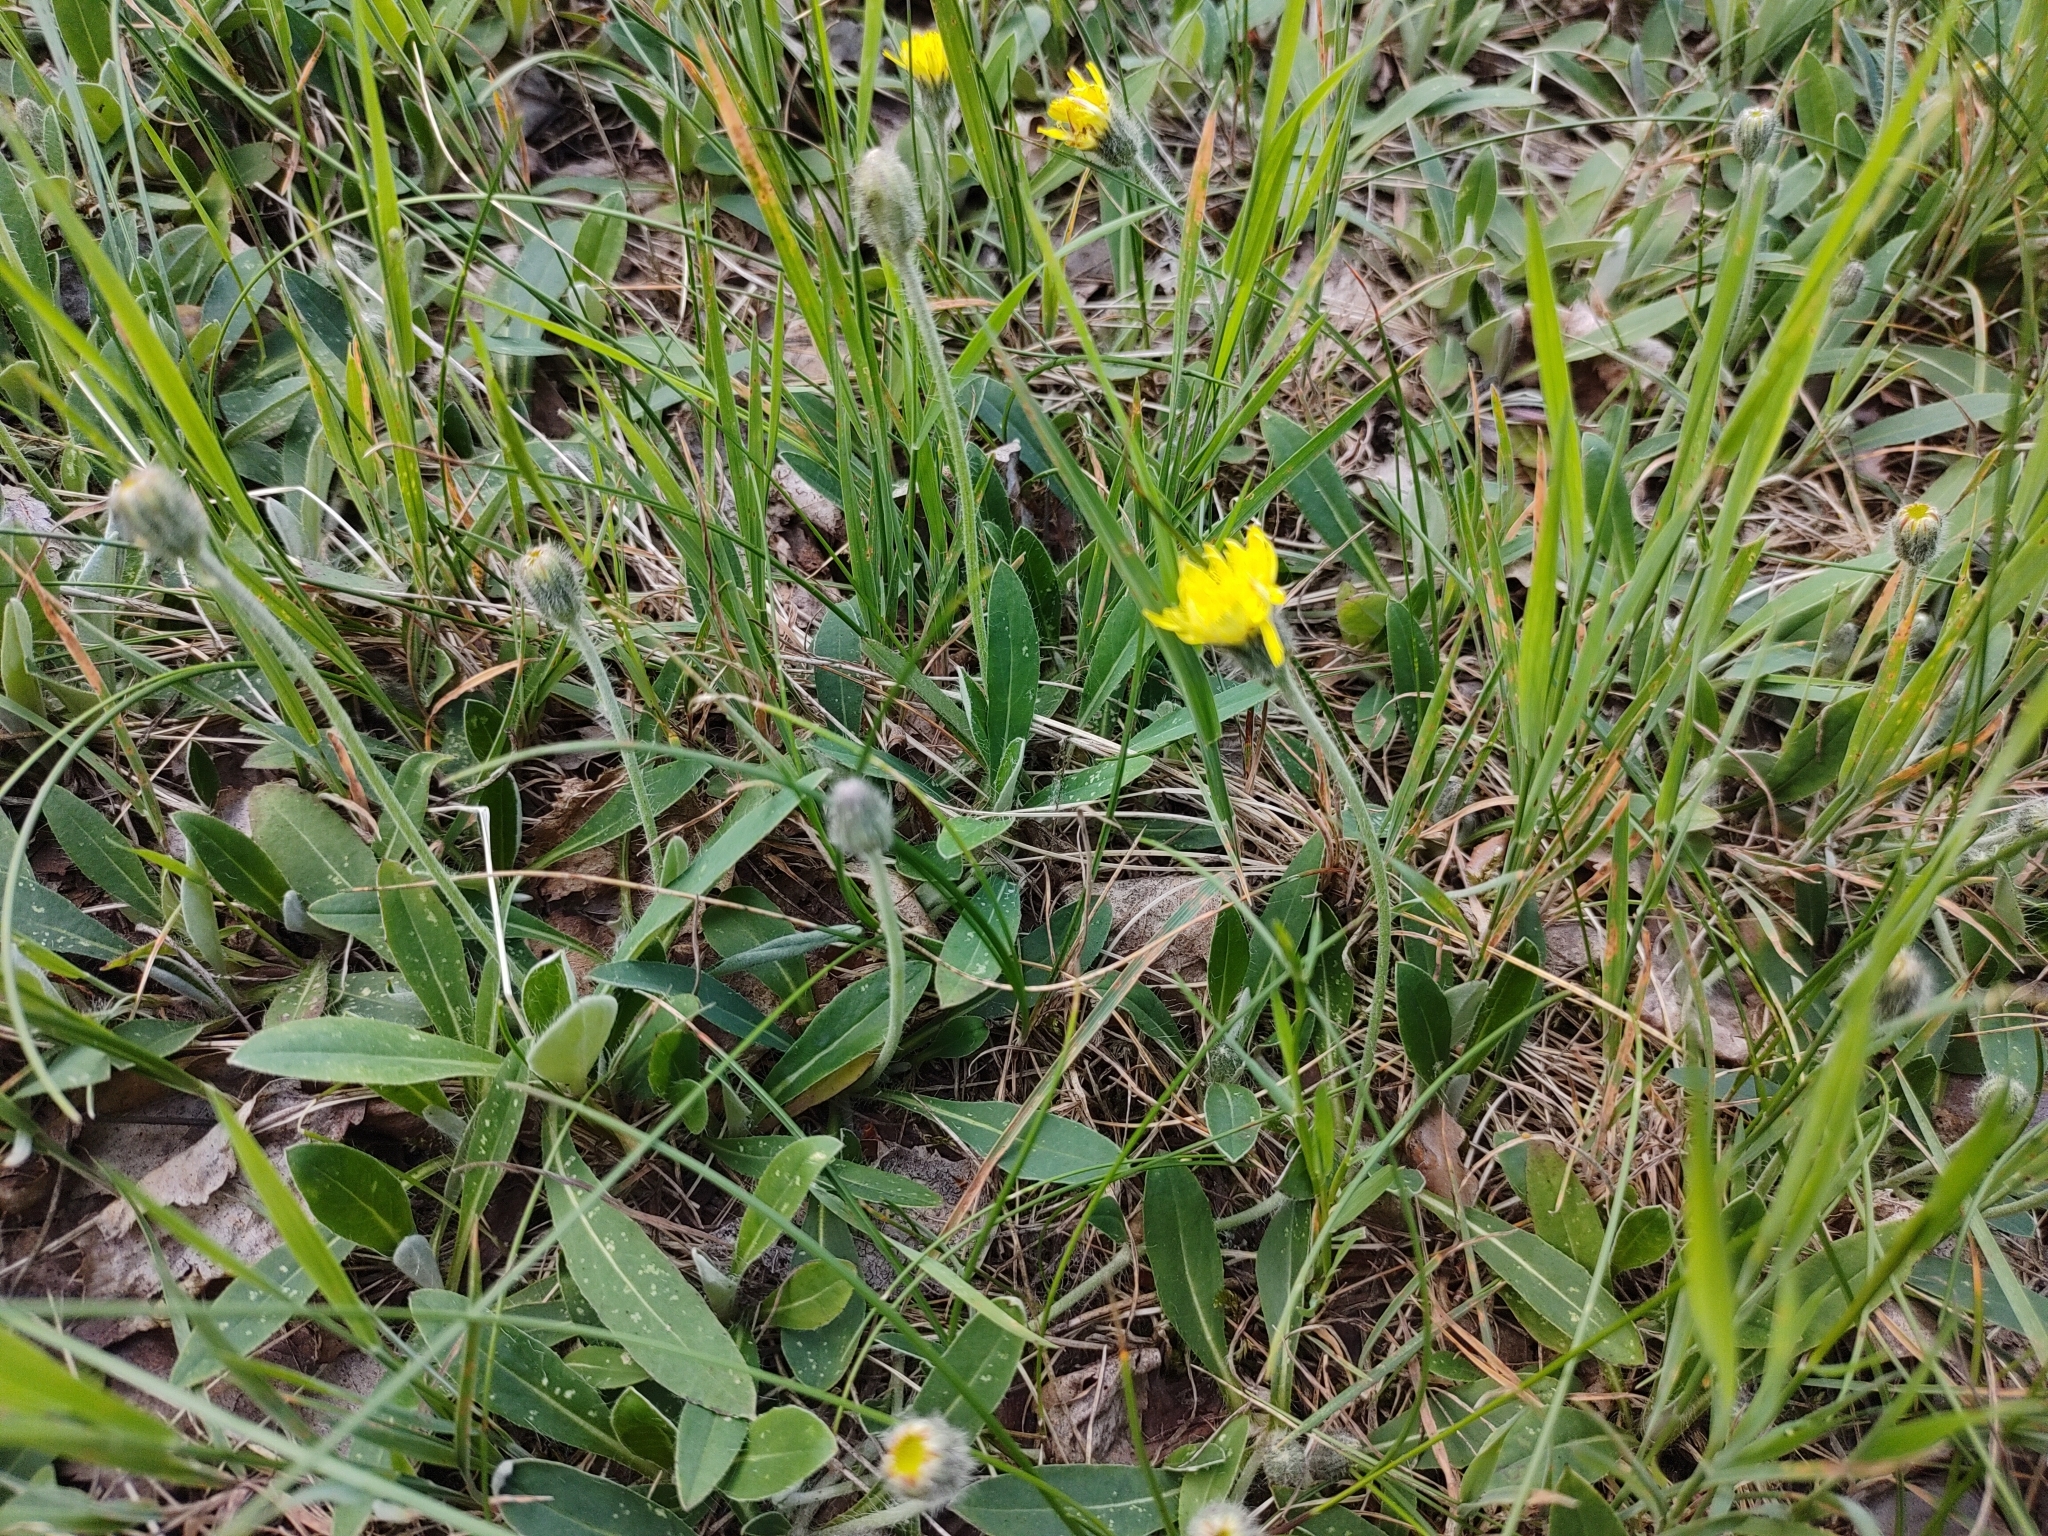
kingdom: Plantae
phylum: Tracheophyta
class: Magnoliopsida
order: Asterales
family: Asteraceae
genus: Pilosella
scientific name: Pilosella officinarum
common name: Mouse-ear hawkweed
